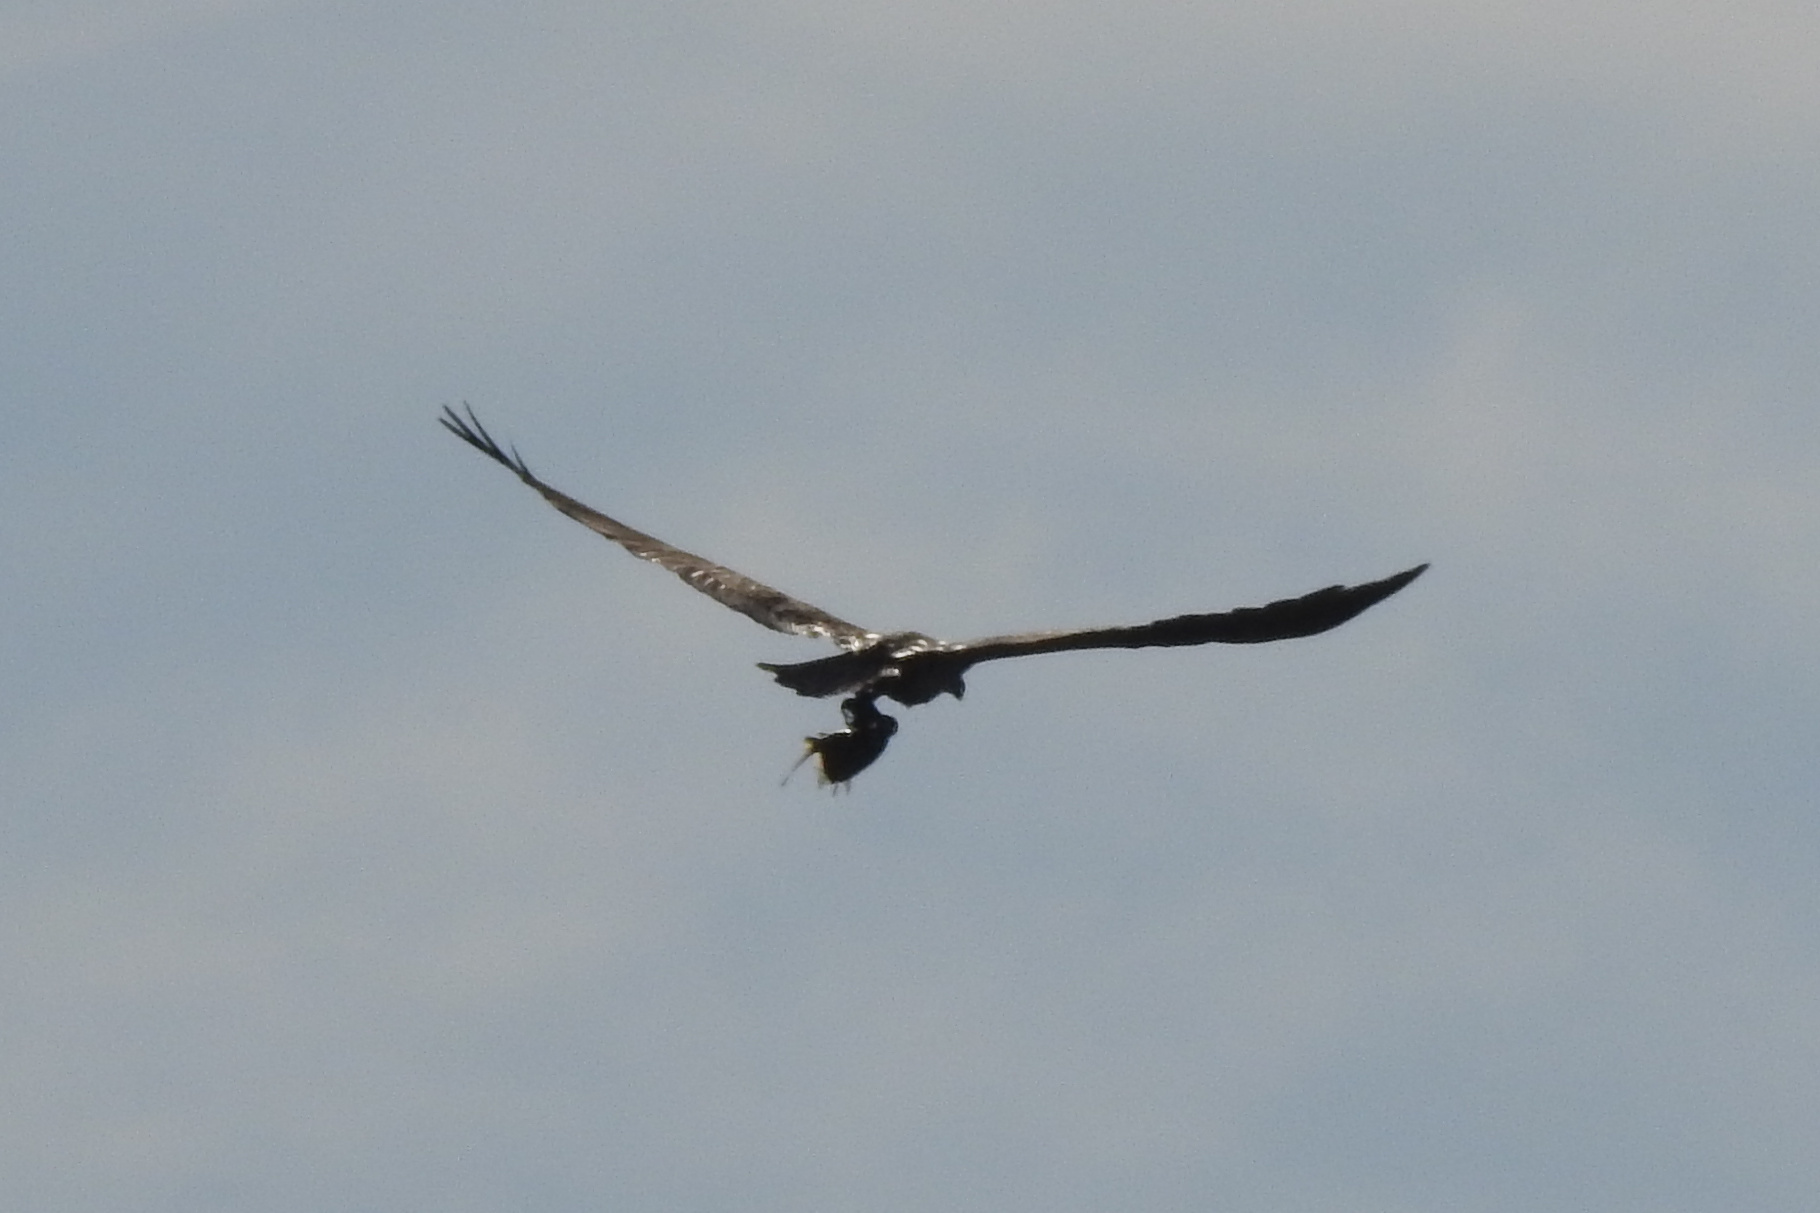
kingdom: Animalia
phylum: Chordata
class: Aves
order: Accipitriformes
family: Pandionidae
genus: Pandion
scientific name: Pandion haliaetus
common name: Osprey
